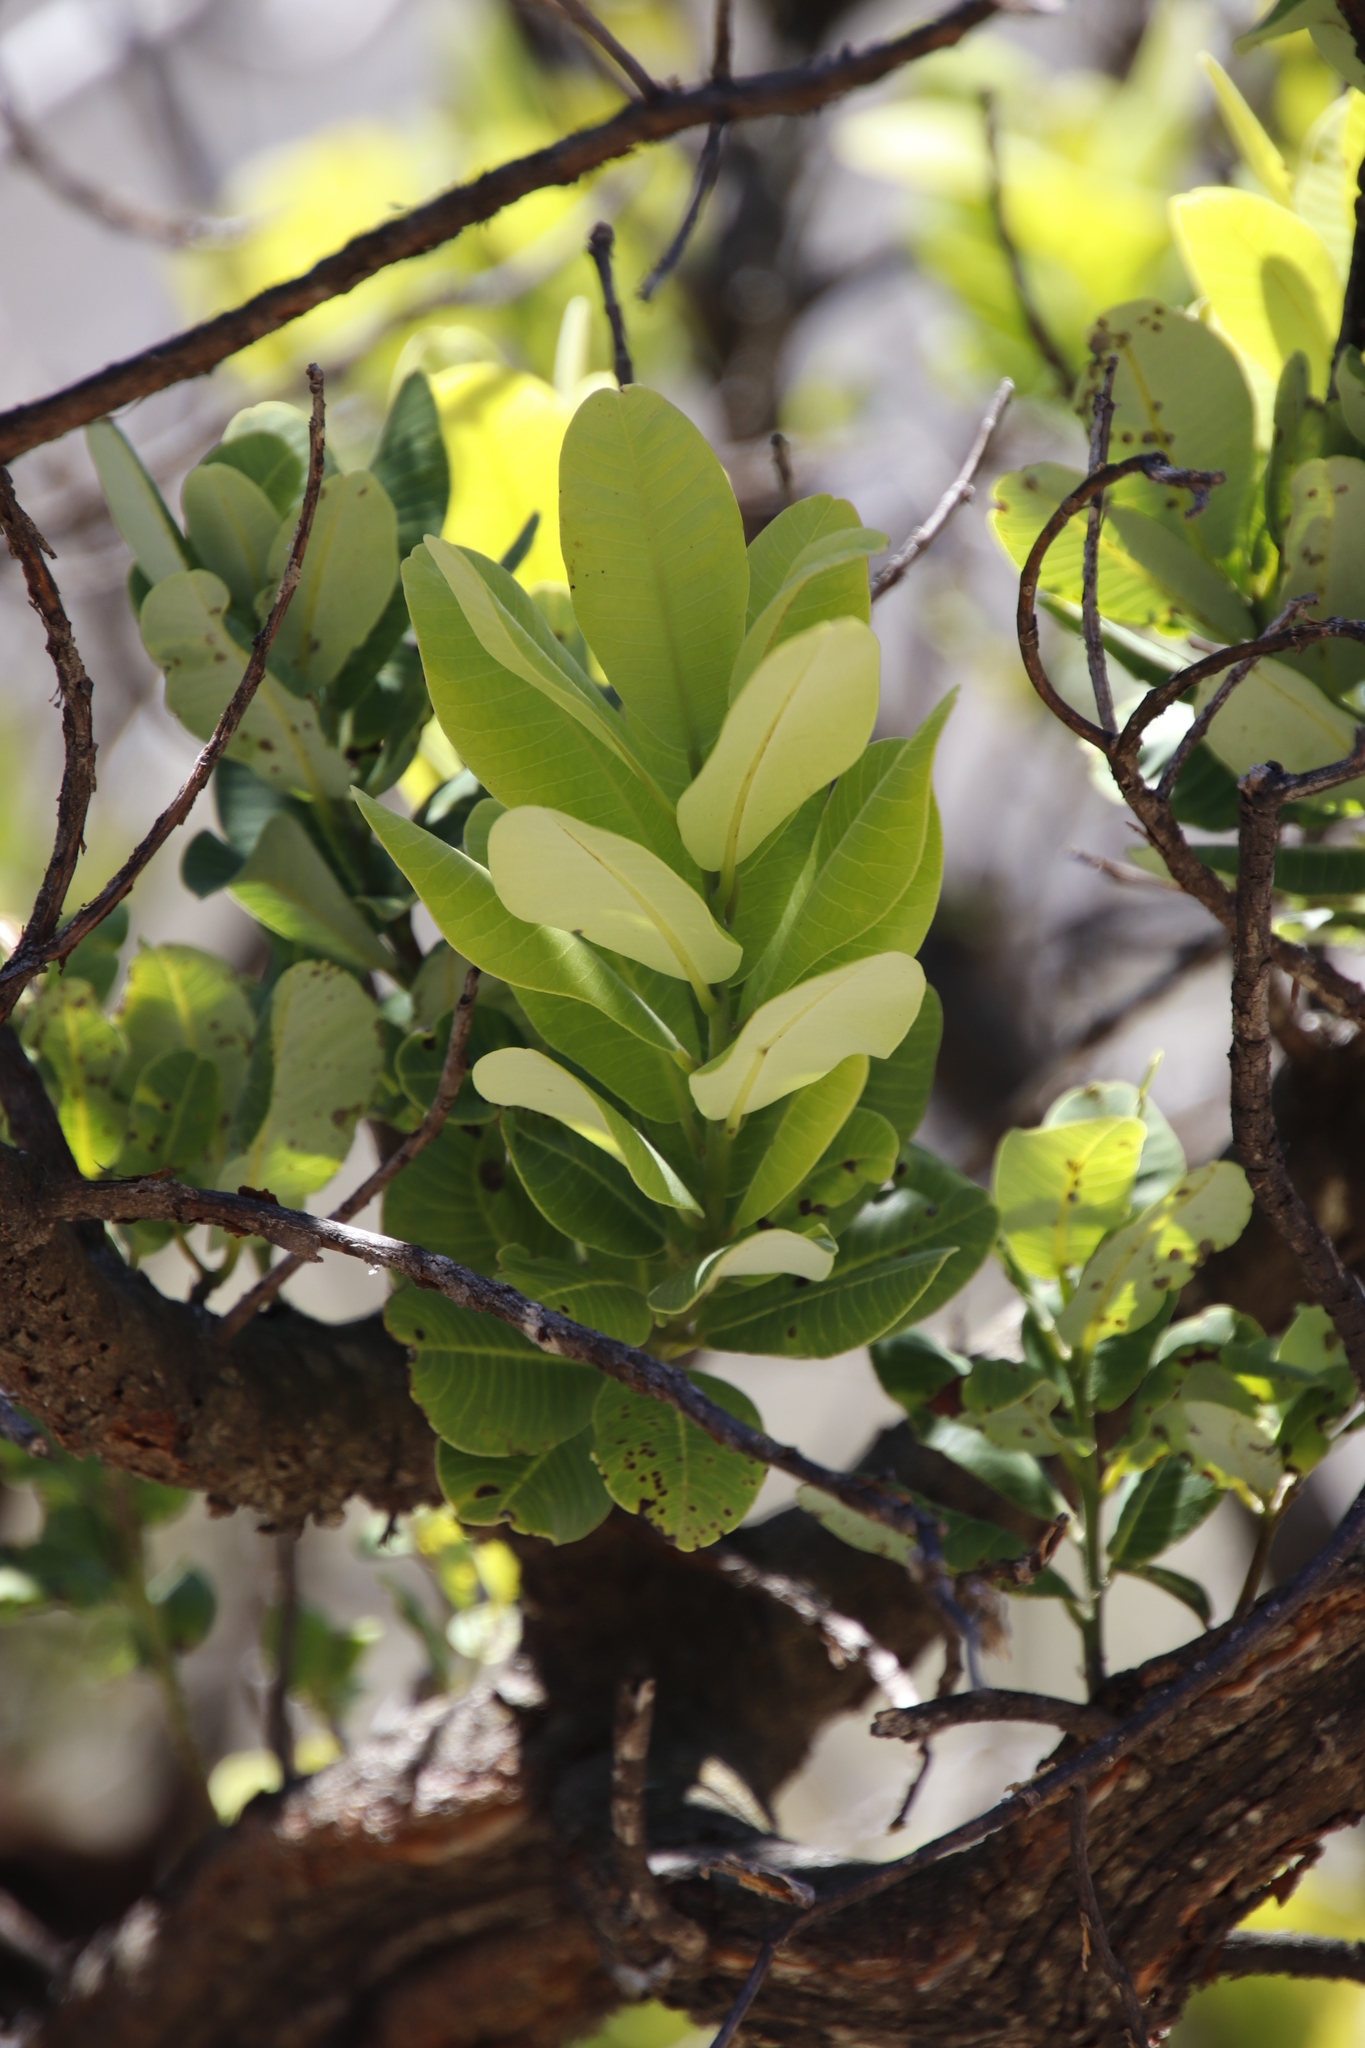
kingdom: Plantae
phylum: Tracheophyta
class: Magnoliopsida
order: Sapindales
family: Anacardiaceae
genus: Heeria
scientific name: Heeria argentea
